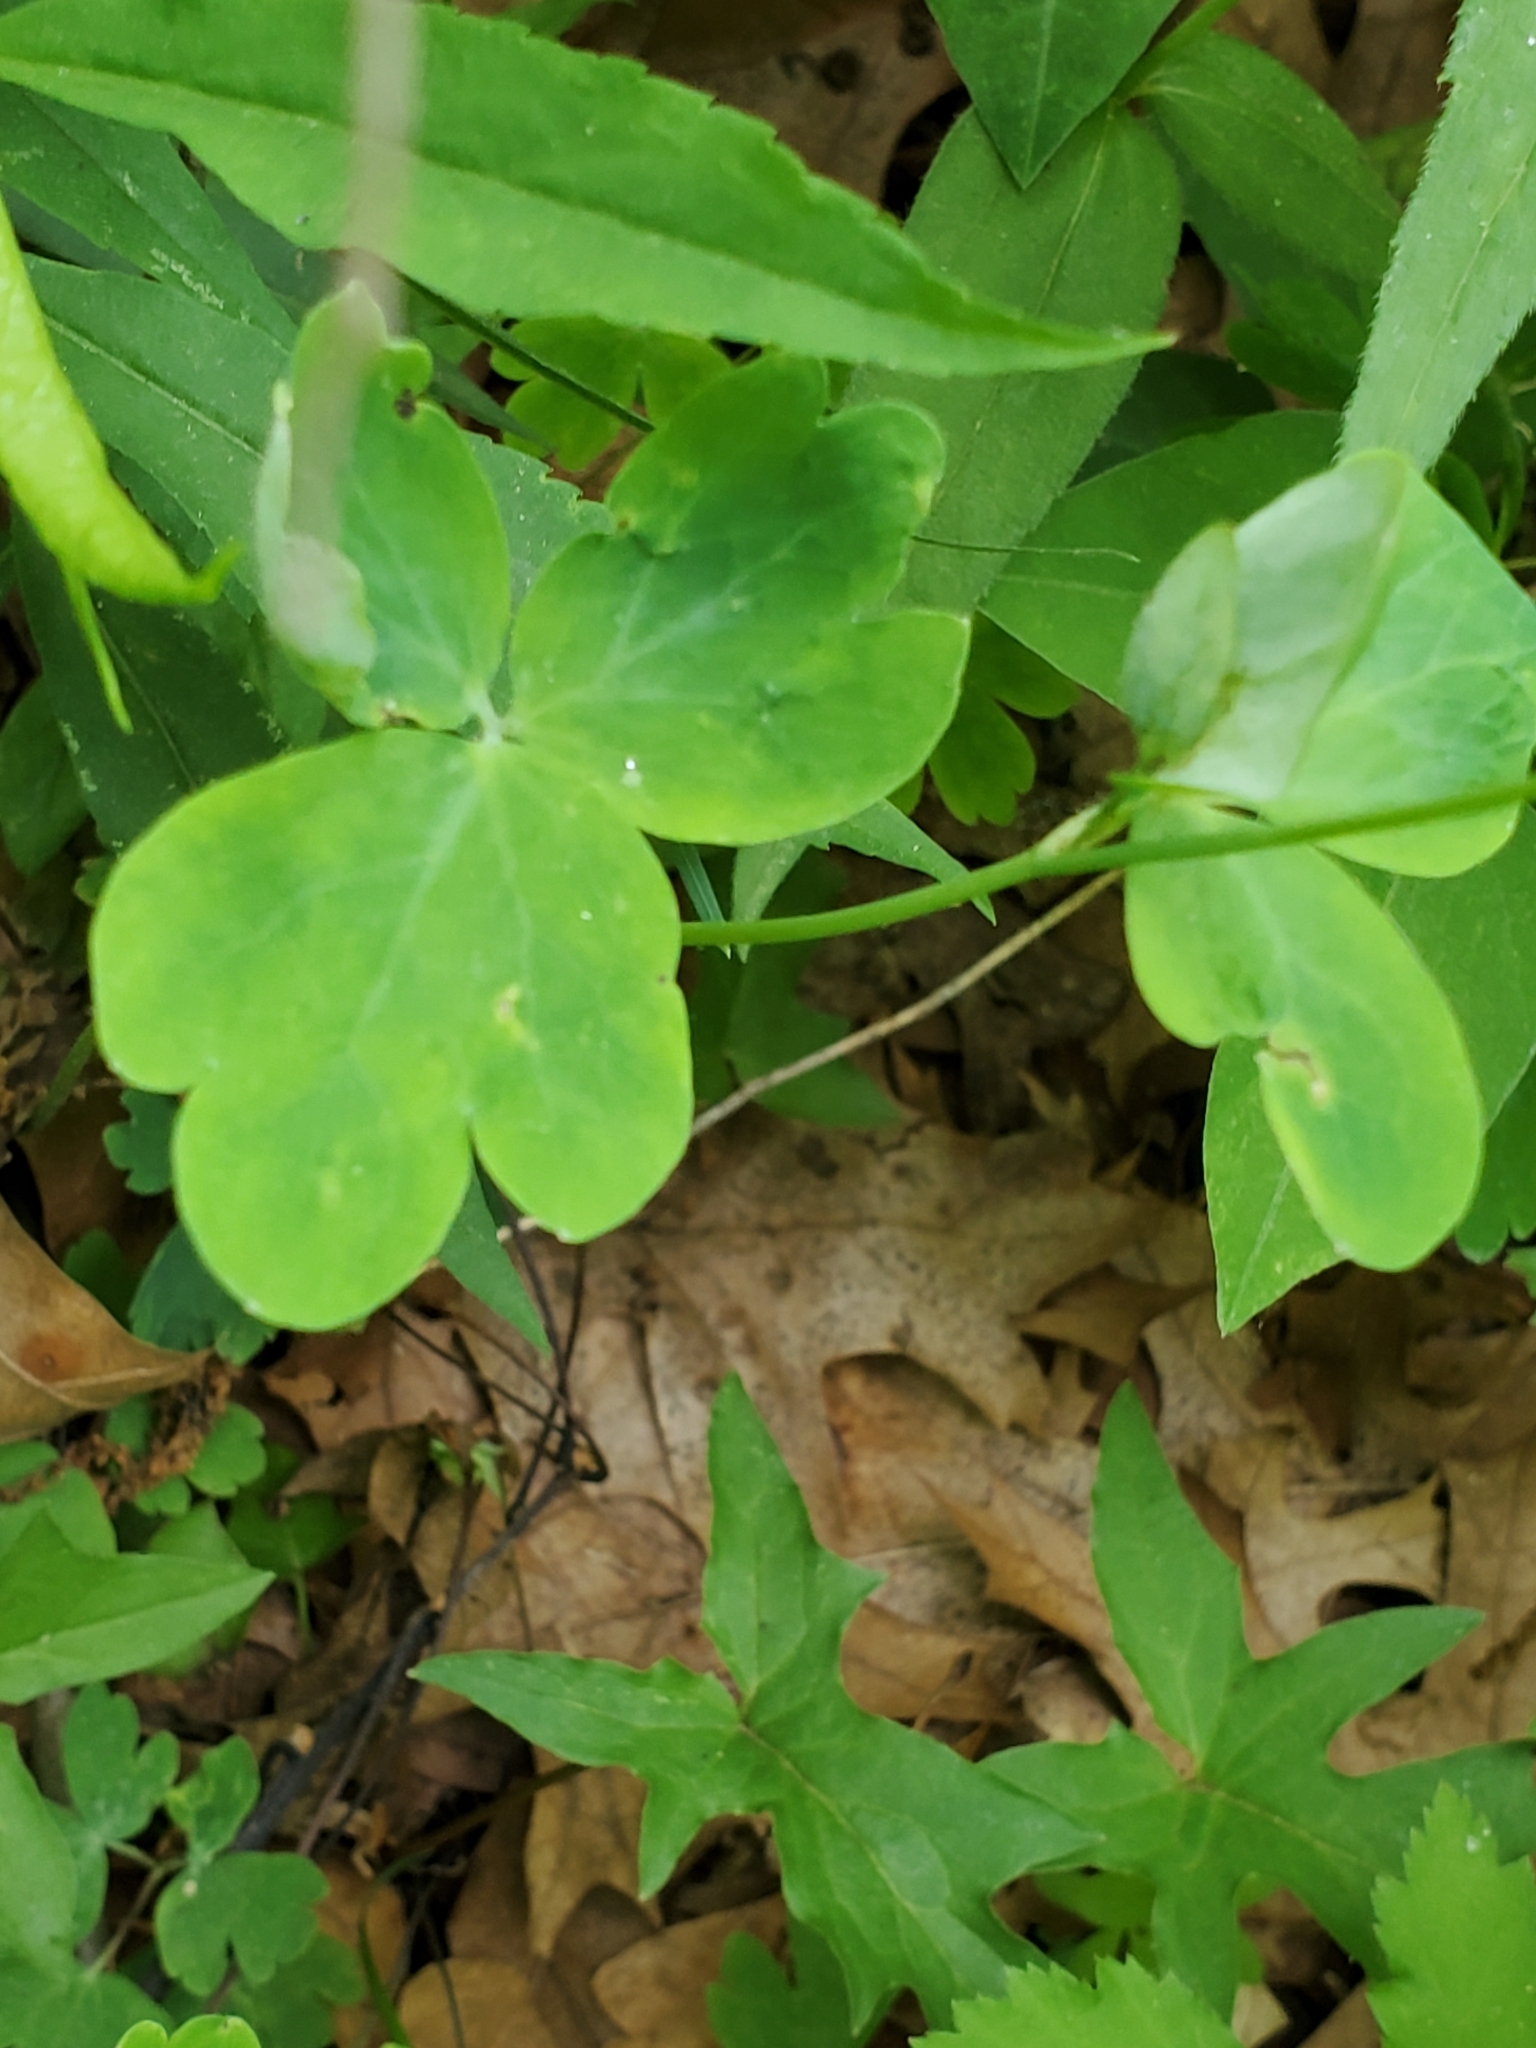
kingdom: Plantae
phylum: Tracheophyta
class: Magnoliopsida
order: Ranunculales
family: Ranunculaceae
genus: Aquilegia
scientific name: Aquilegia canadensis
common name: American columbine
